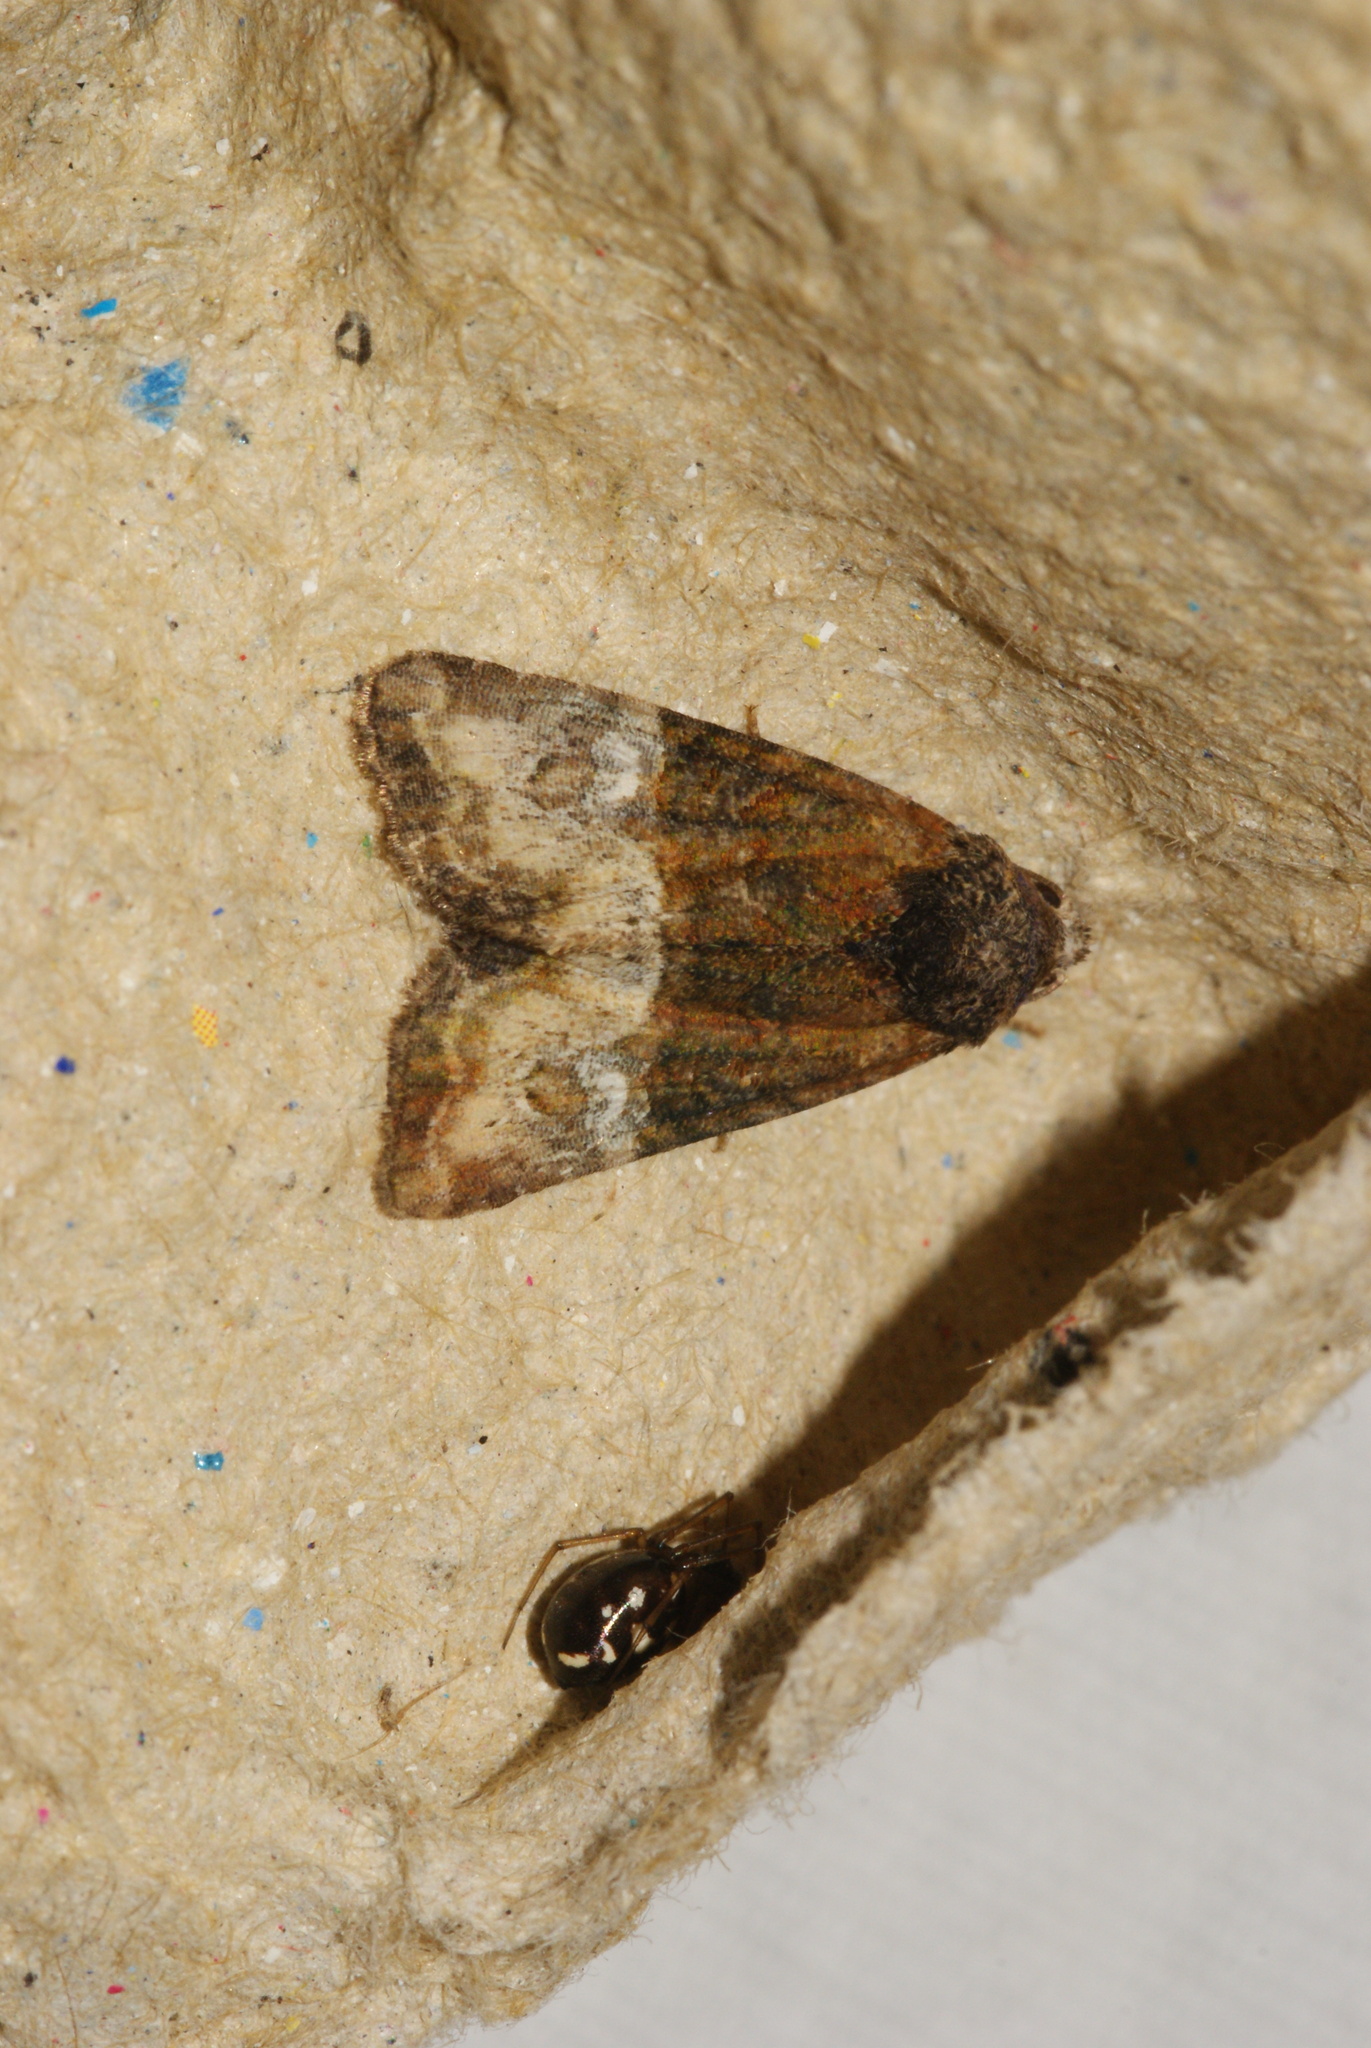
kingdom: Animalia
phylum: Arthropoda
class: Insecta
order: Lepidoptera
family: Noctuidae
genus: Mesoligia
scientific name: Mesoligia furuncula
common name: Cloaked minor
